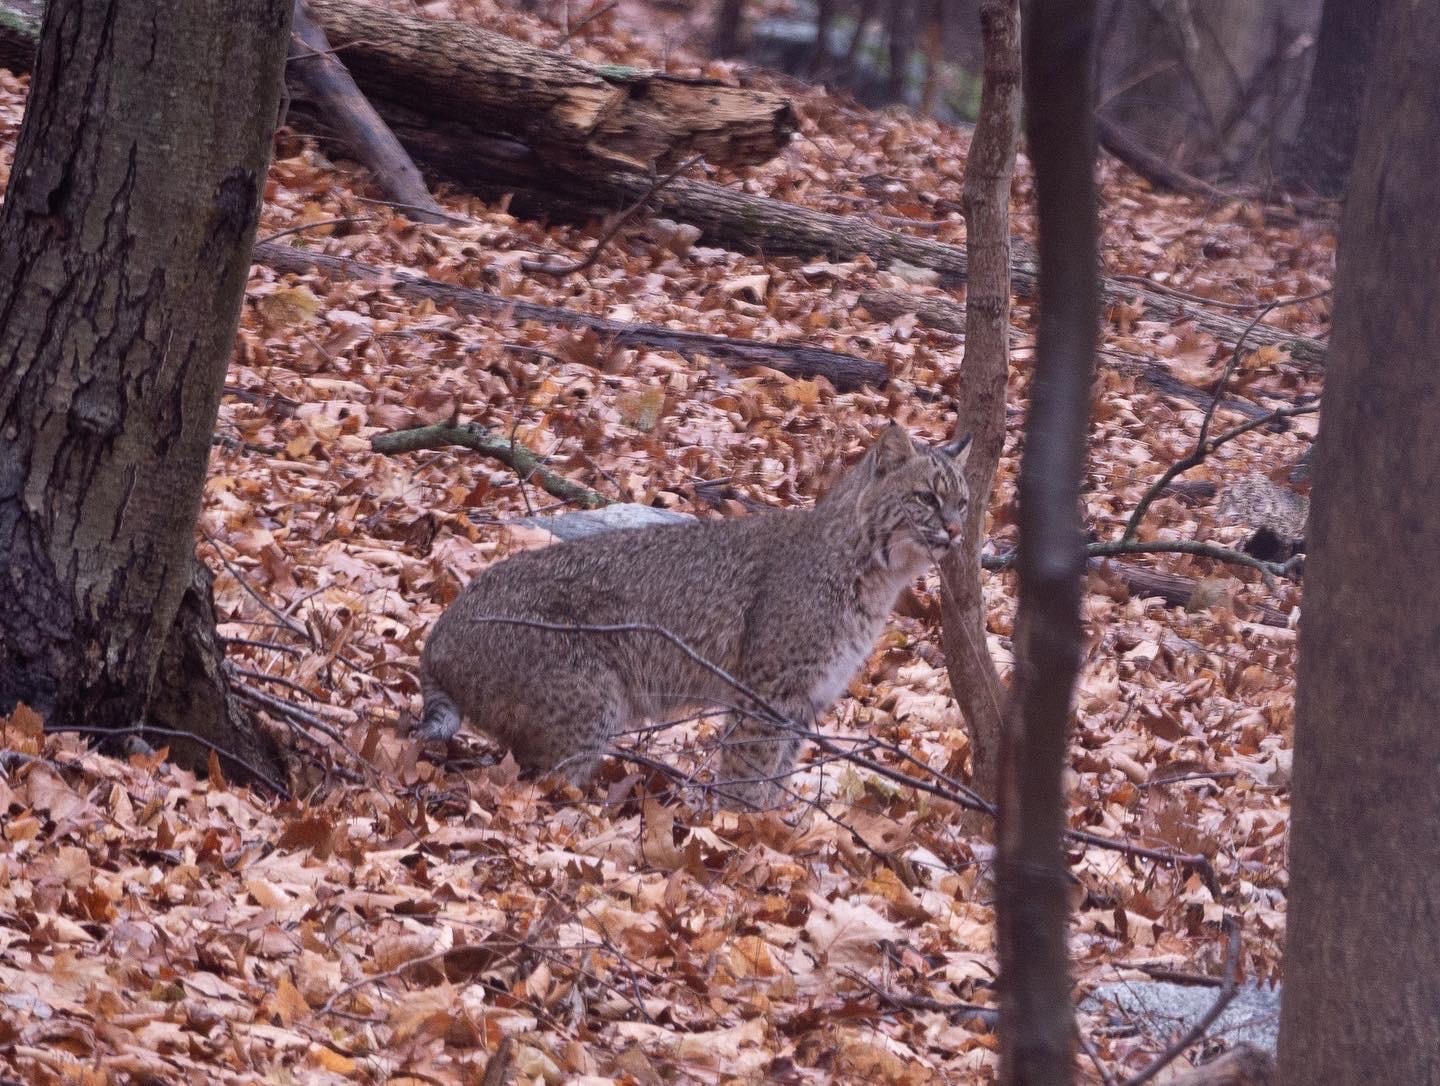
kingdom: Animalia
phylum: Chordata
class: Mammalia
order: Carnivora
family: Felidae
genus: Lynx
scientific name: Lynx rufus
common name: Bobcat
